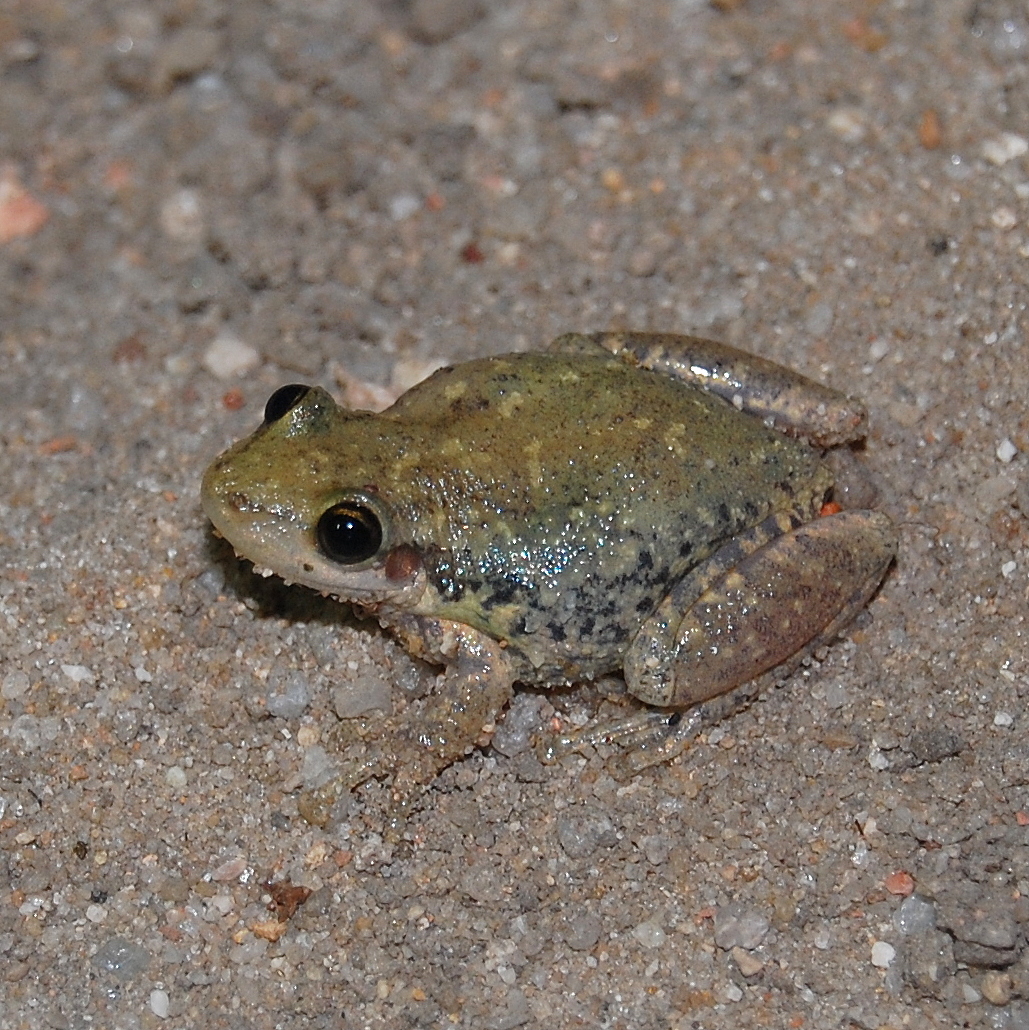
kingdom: Animalia
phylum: Chordata
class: Amphibia
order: Anura
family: Hylidae
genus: Scinax
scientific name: Scinax fuscovarius
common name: Fuscous-blotched treefrog
